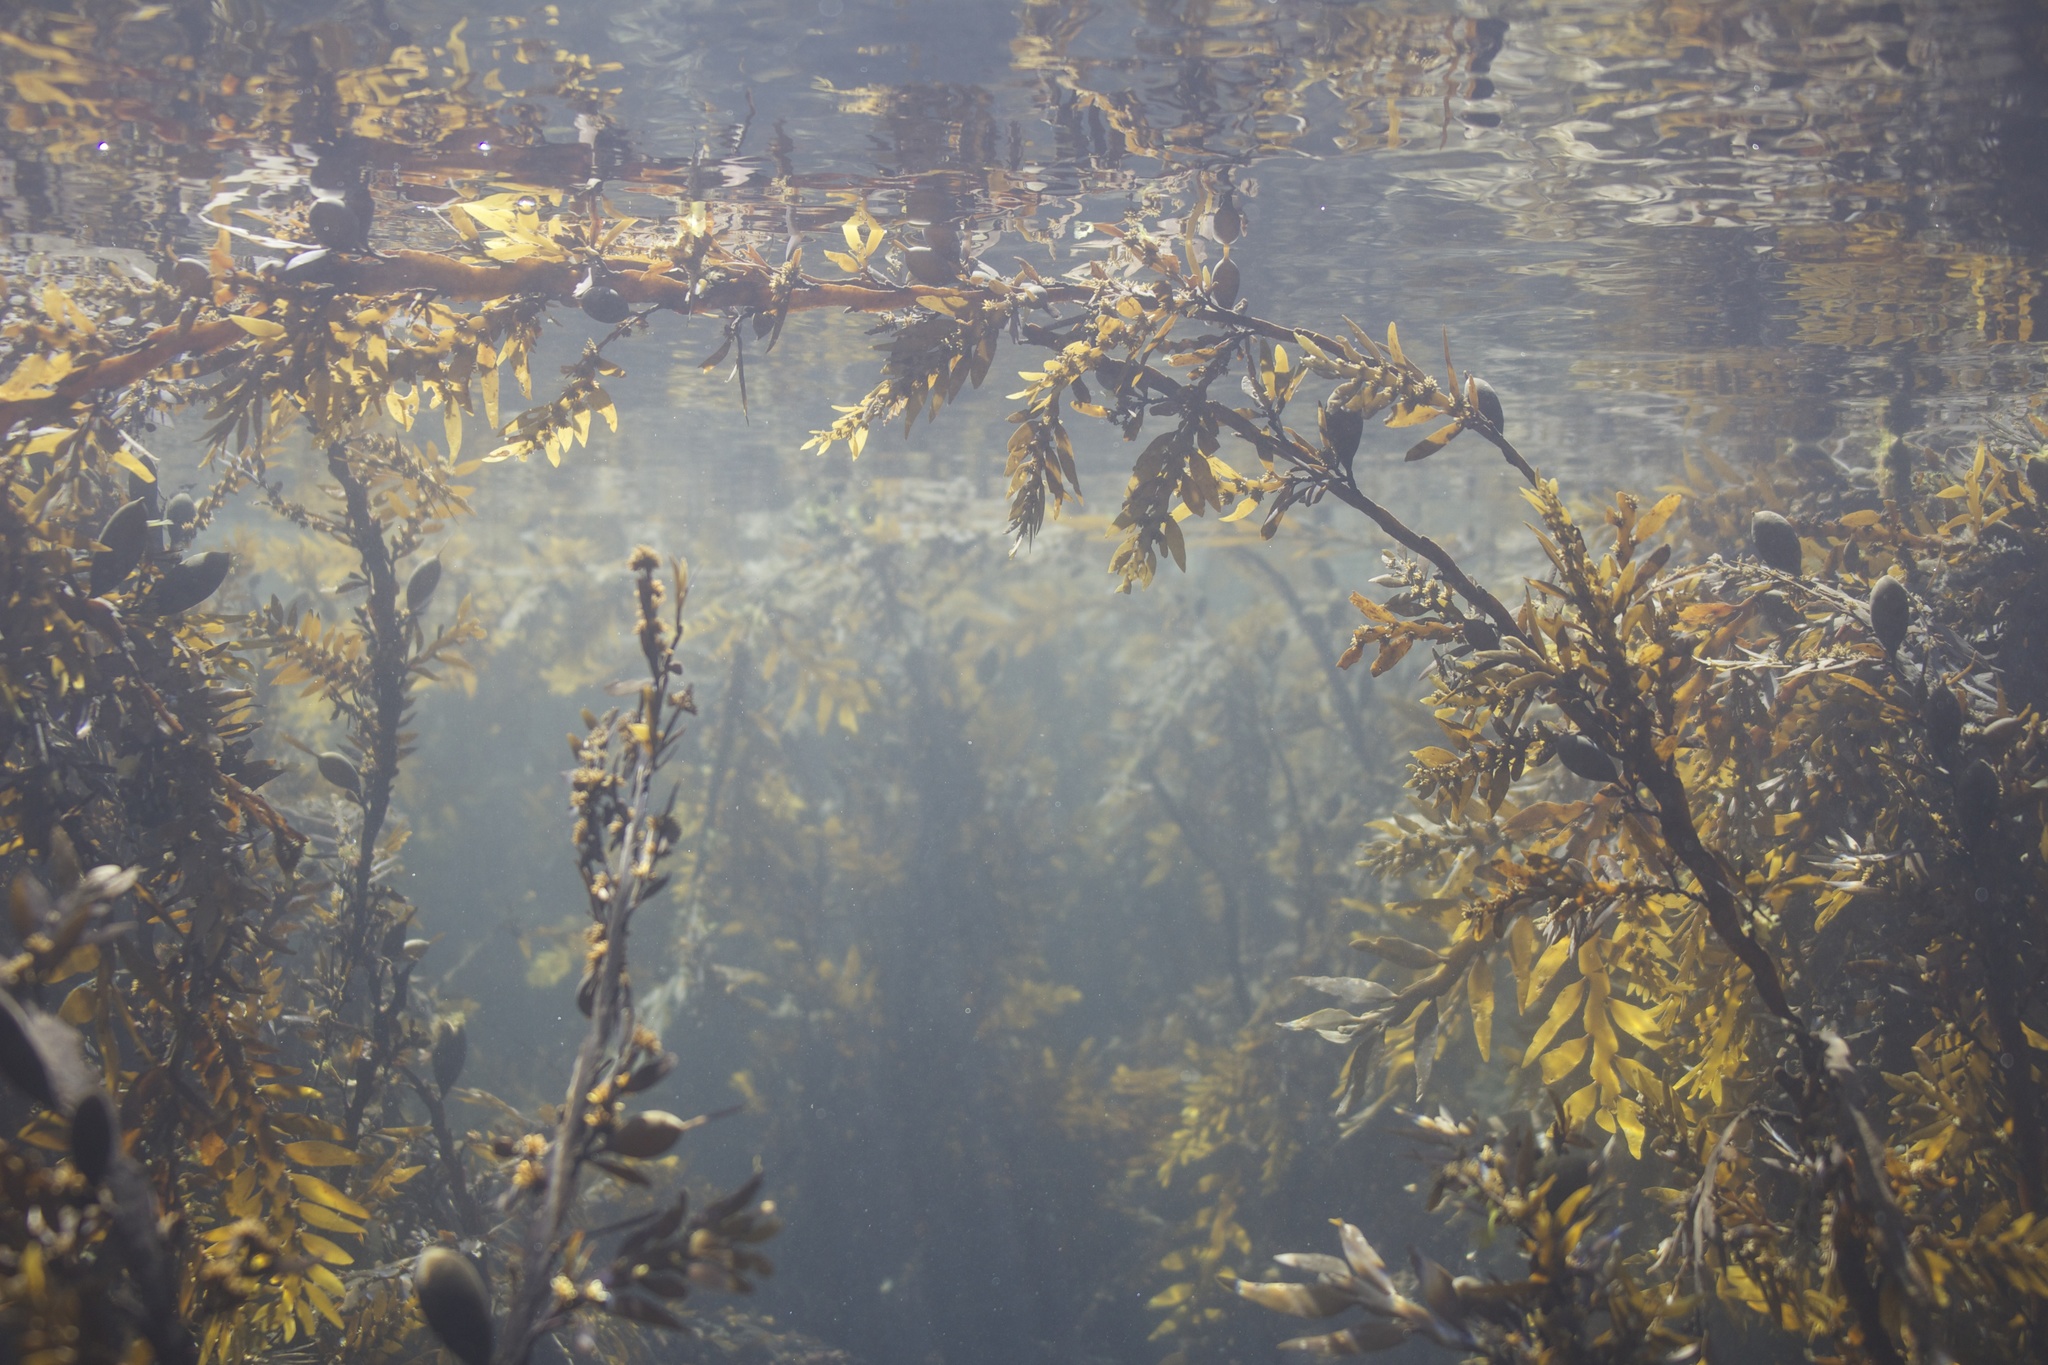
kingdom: Chromista
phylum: Ochrophyta
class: Phaeophyceae
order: Fucales
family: Sargassaceae
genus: Carpophyllum
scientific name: Carpophyllum maschalocarpum
